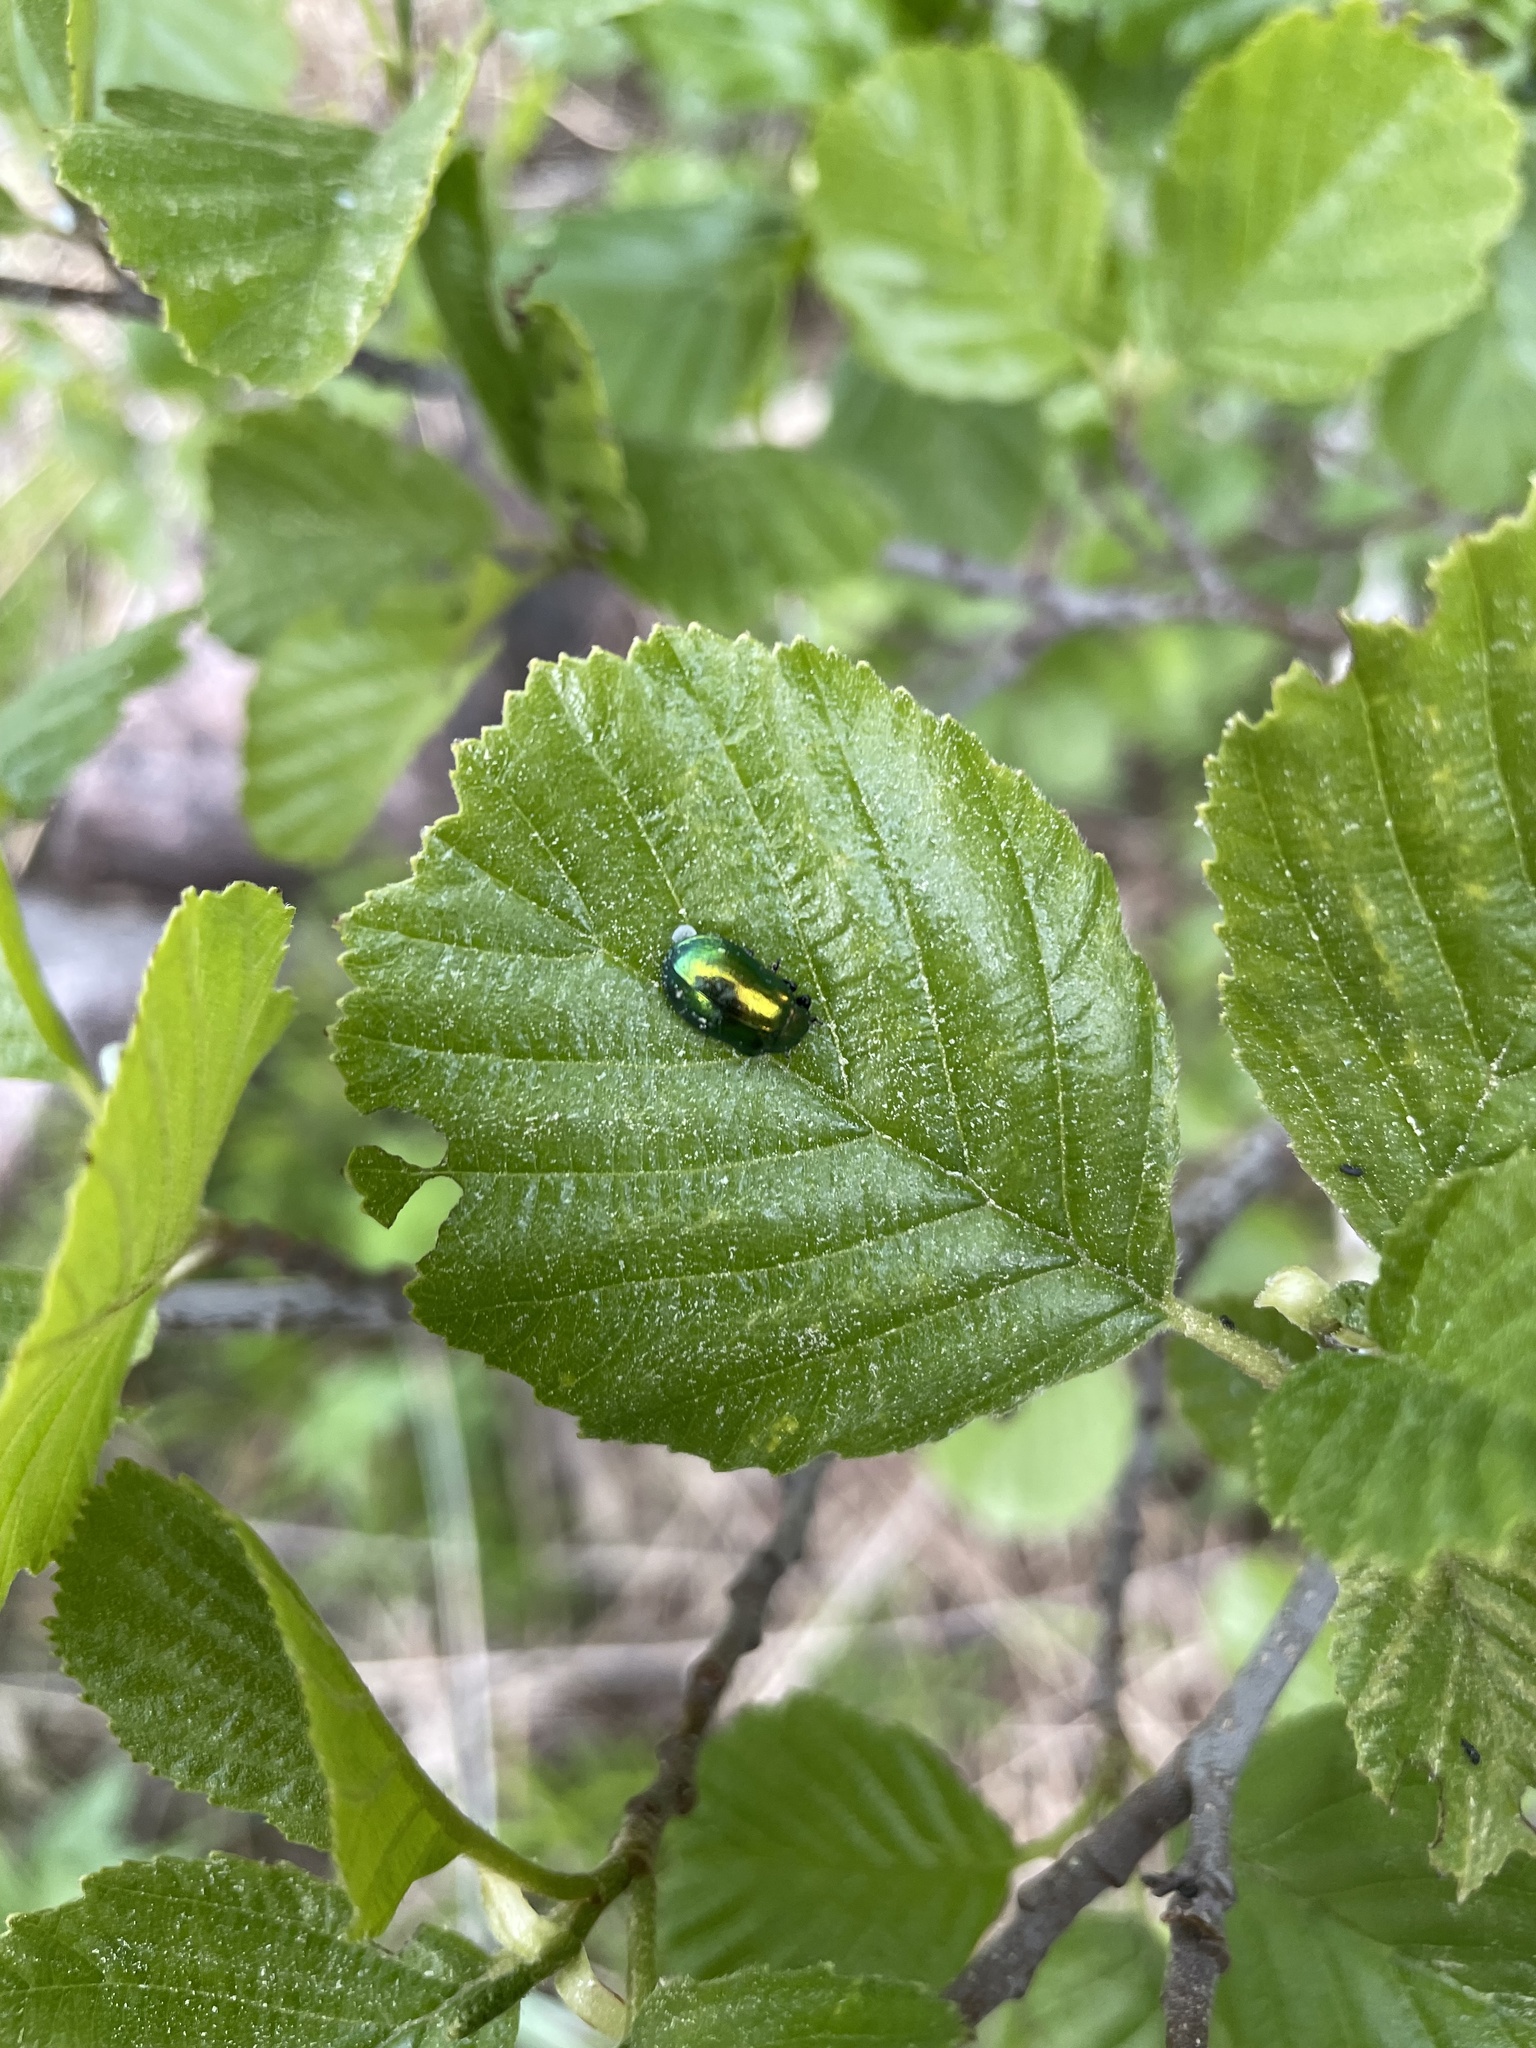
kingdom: Animalia
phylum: Arthropoda
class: Insecta
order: Coleoptera
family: Chrysomelidae
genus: Plagiosterna
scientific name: Plagiosterna aenea
